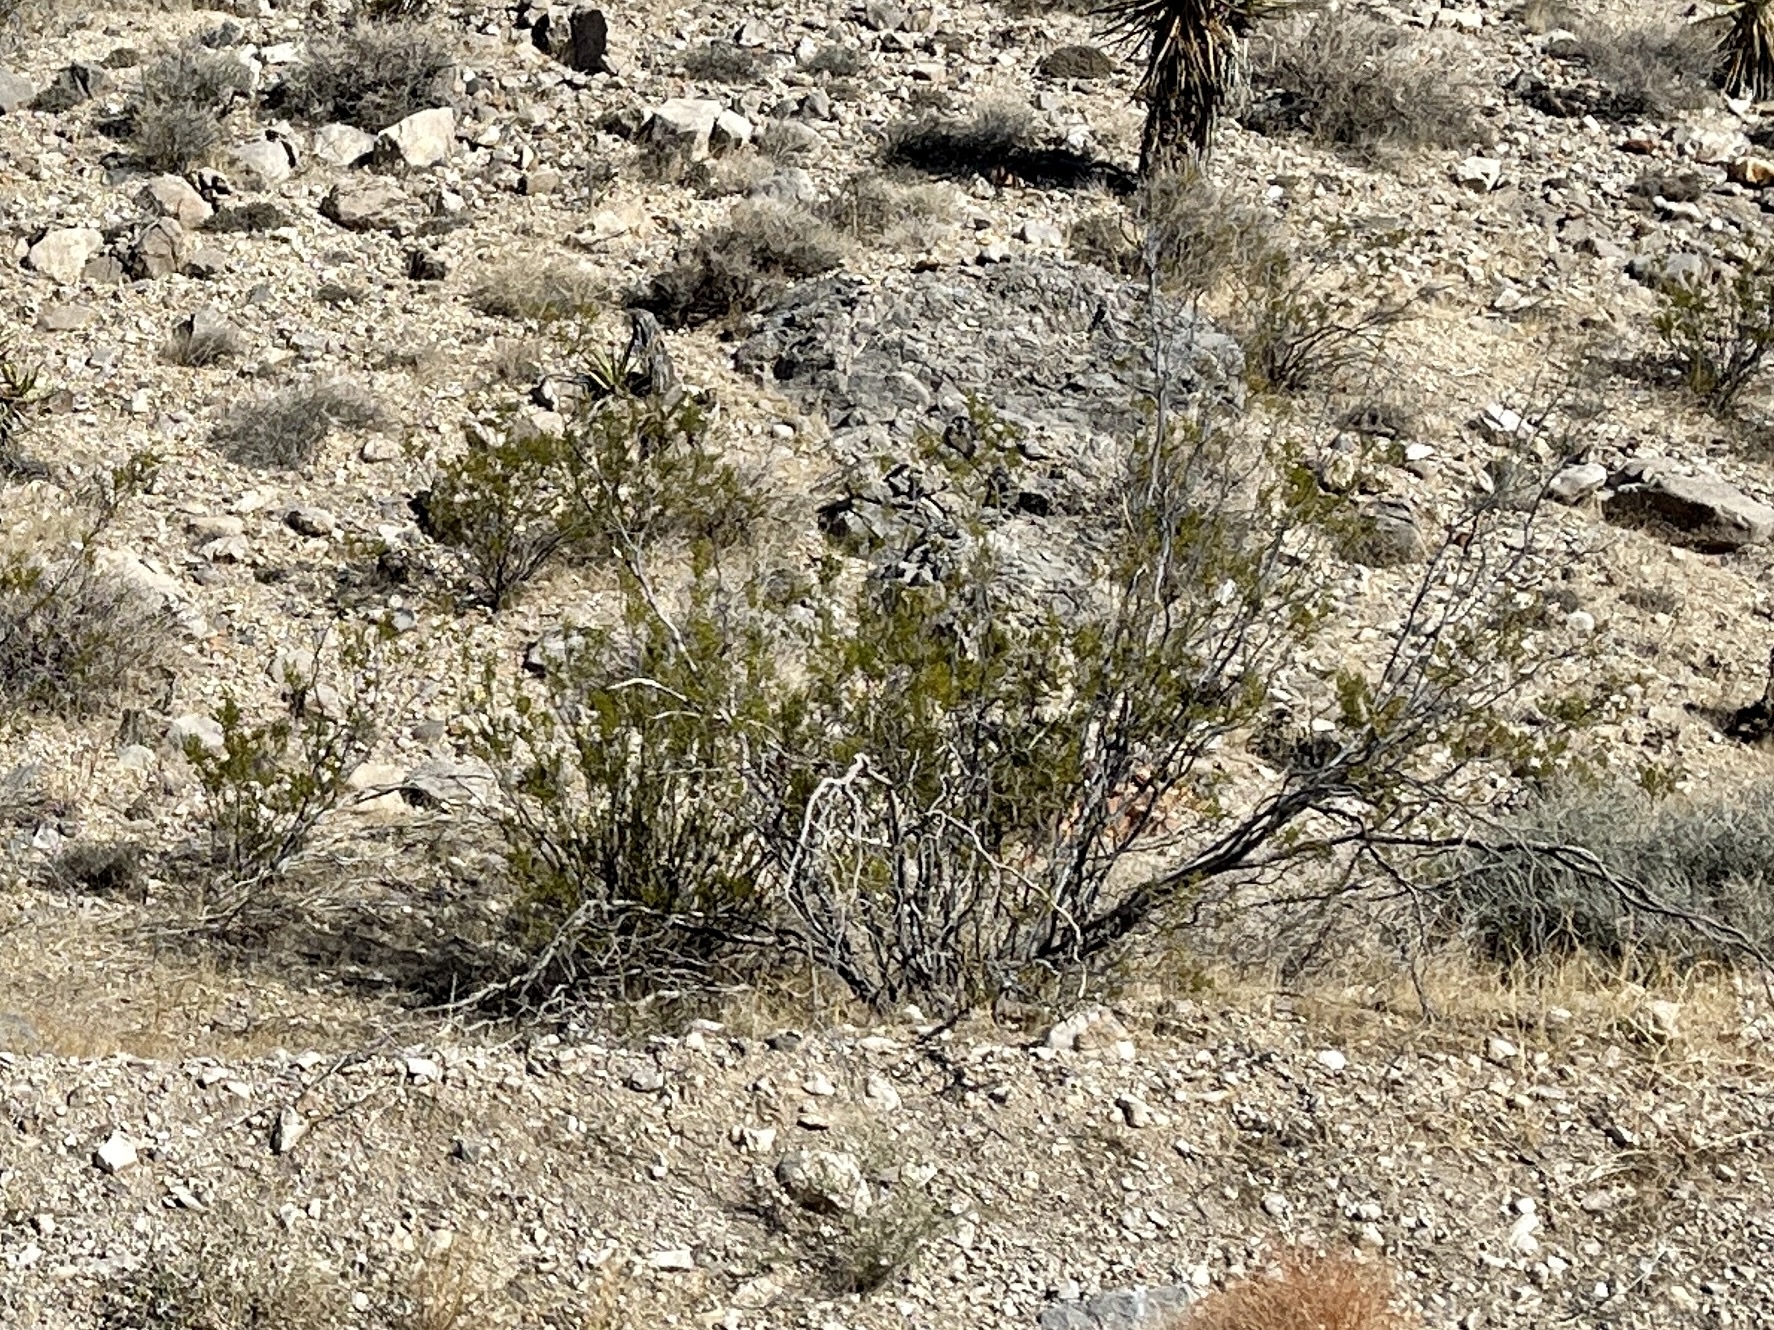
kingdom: Plantae
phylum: Tracheophyta
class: Magnoliopsida
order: Zygophyllales
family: Zygophyllaceae
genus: Larrea
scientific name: Larrea tridentata
